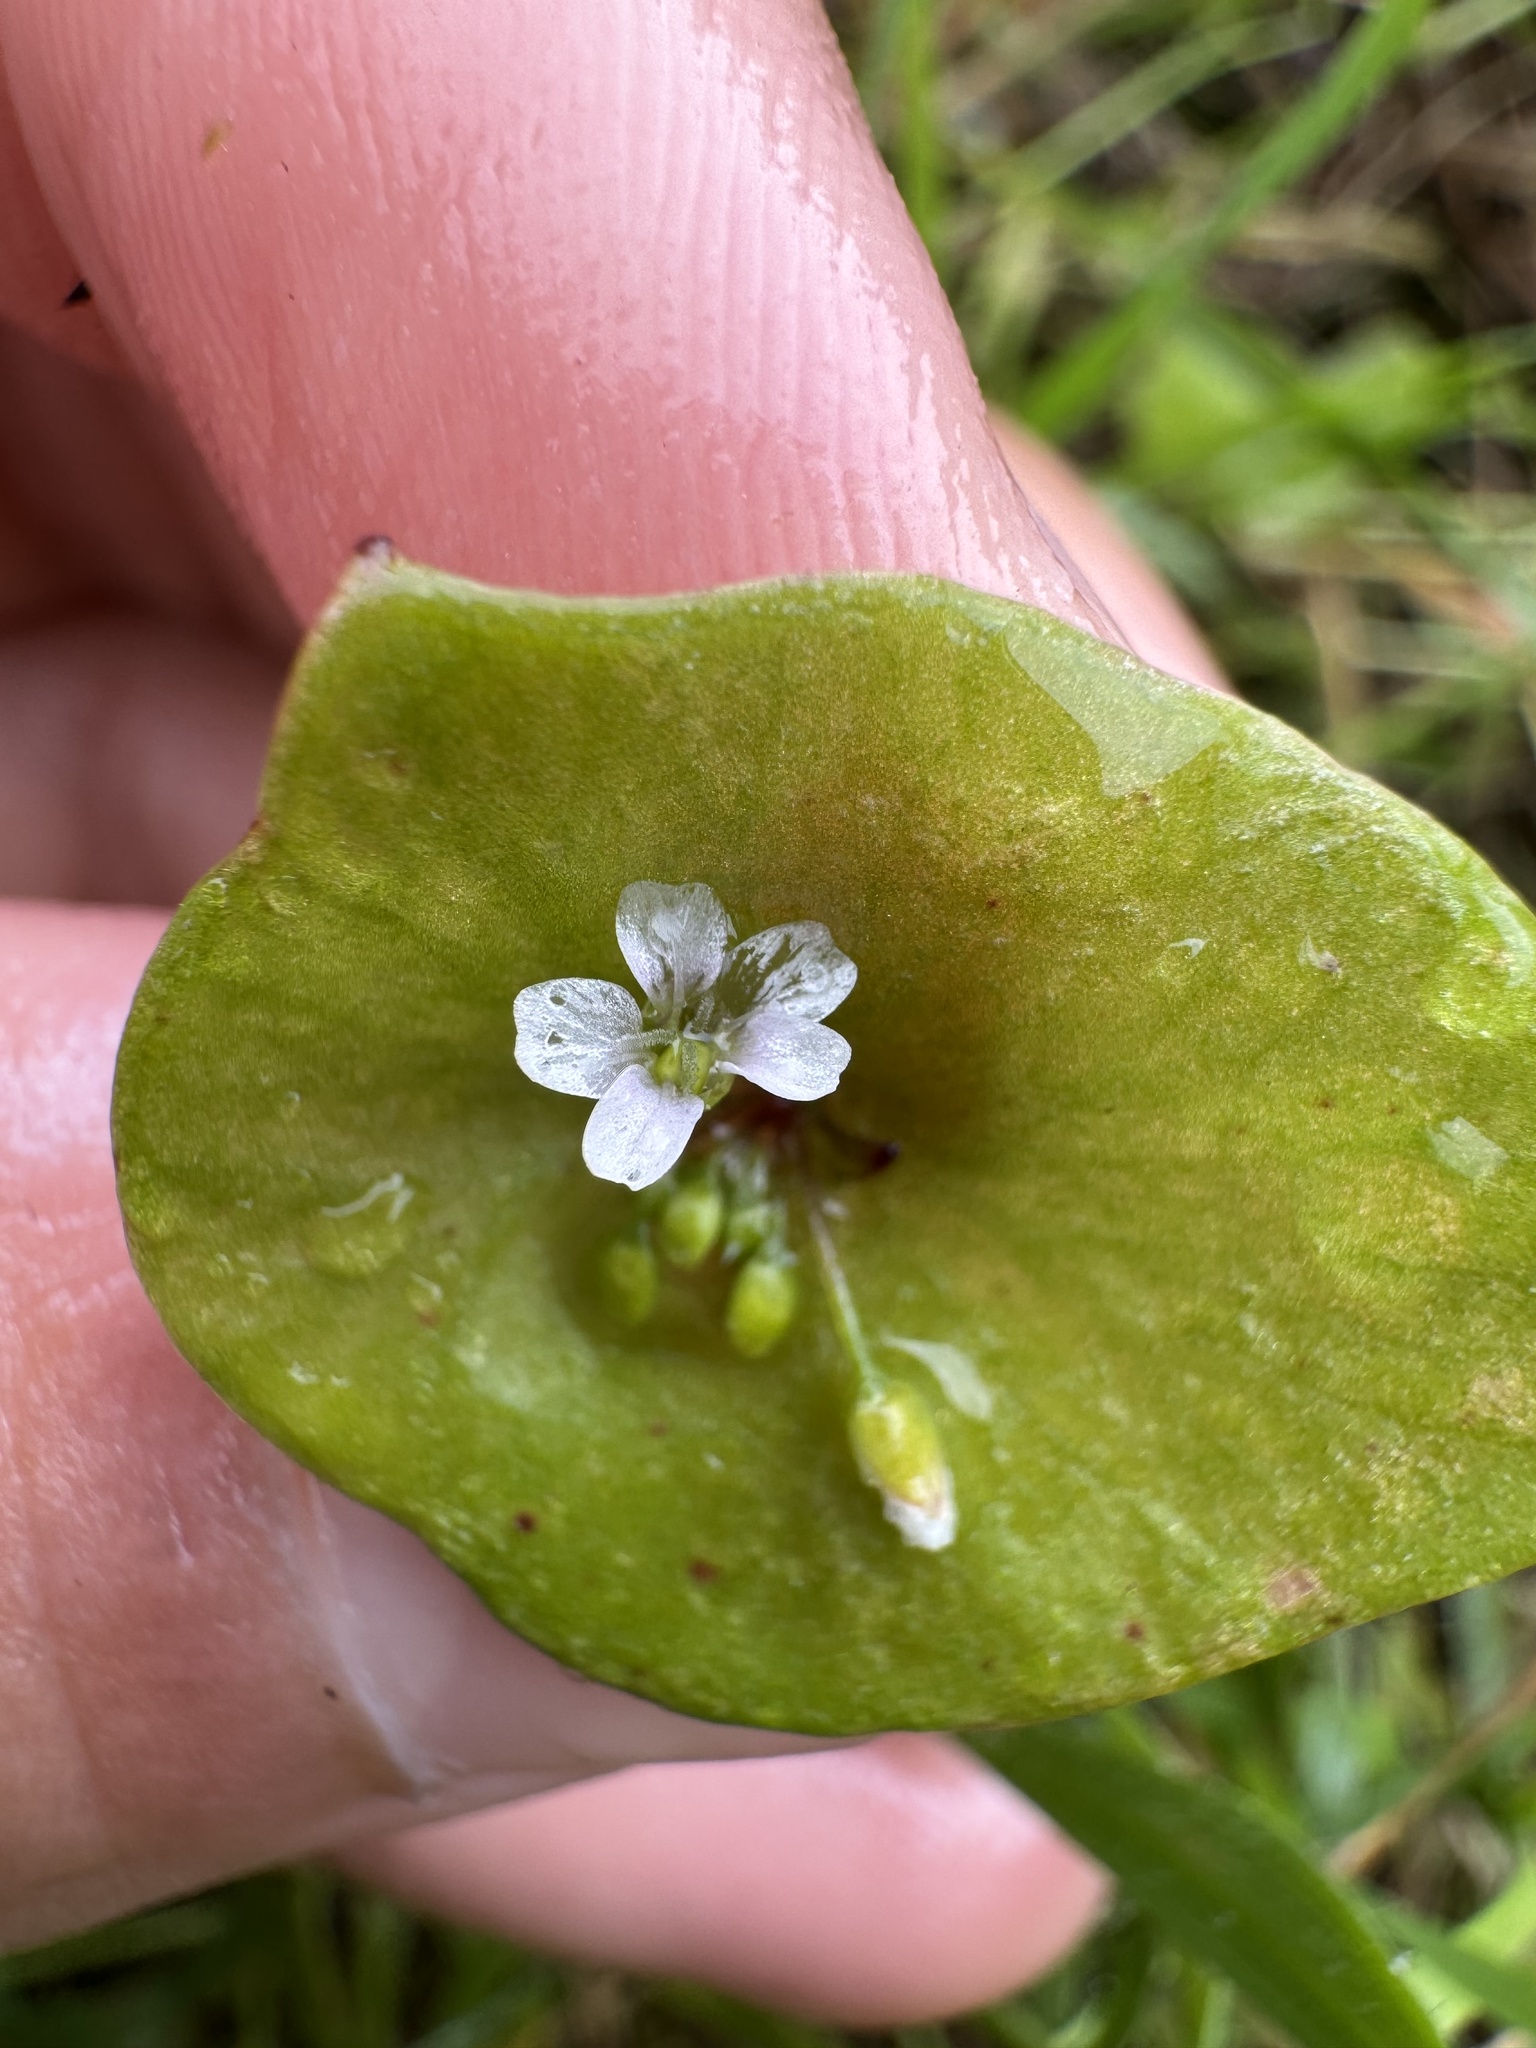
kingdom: Plantae
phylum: Tracheophyta
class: Magnoliopsida
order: Caryophyllales
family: Montiaceae
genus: Claytonia
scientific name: Claytonia perfoliata
